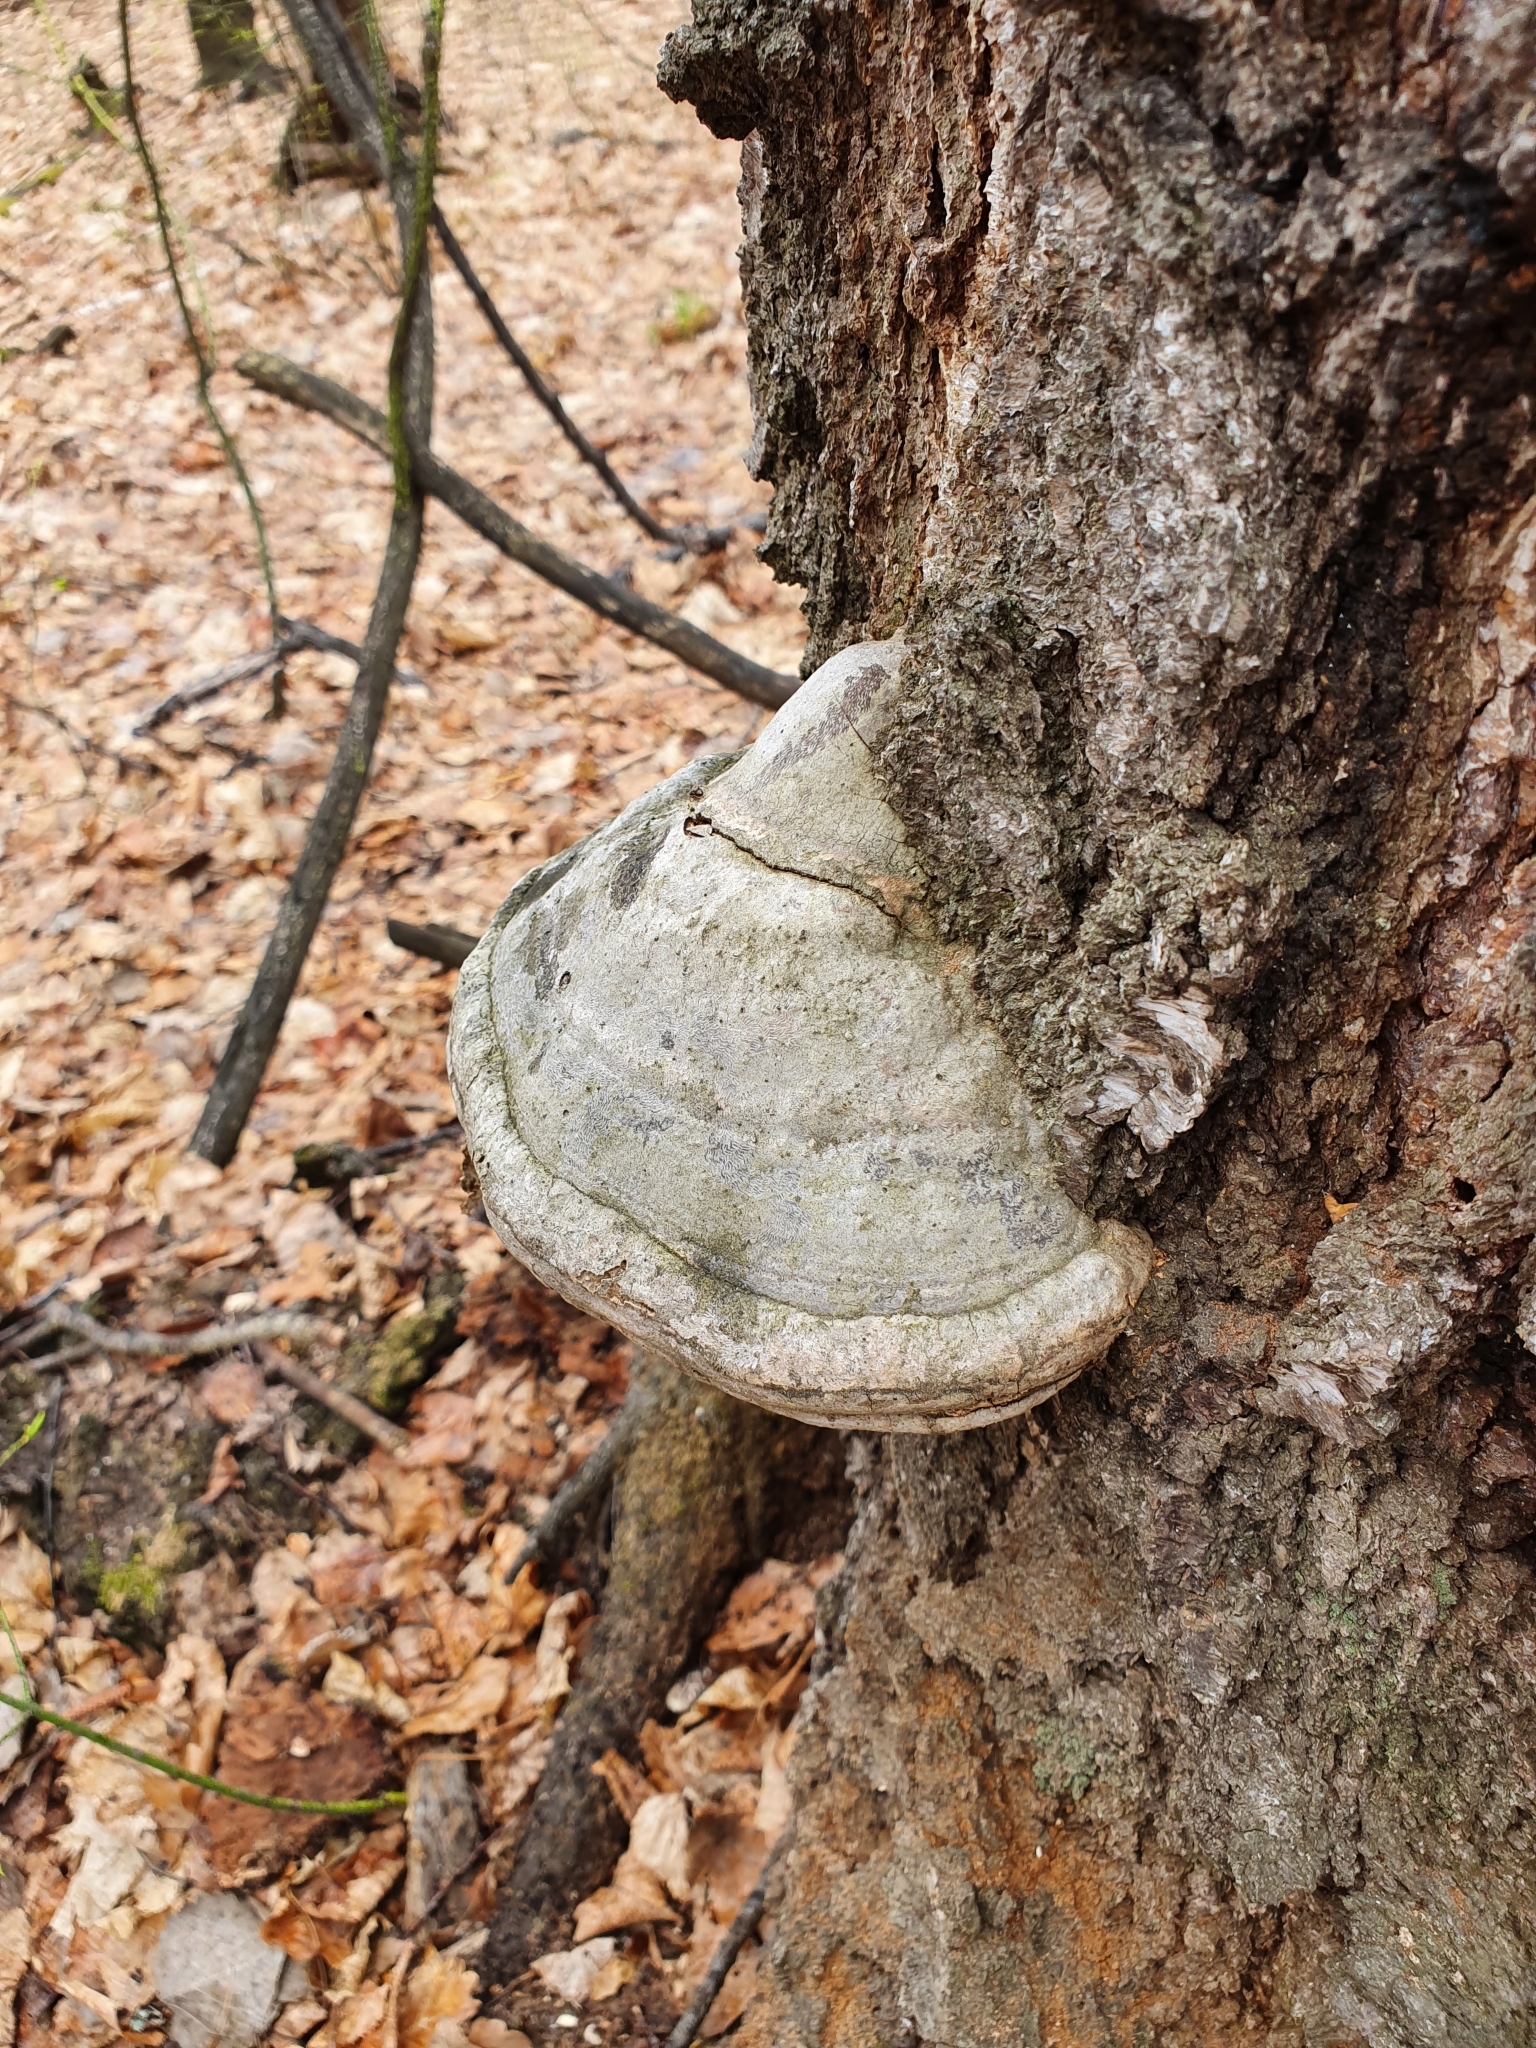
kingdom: Fungi
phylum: Basidiomycota
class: Agaricomycetes
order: Polyporales
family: Polyporaceae
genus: Fomes
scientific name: Fomes fomentarius
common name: Hoof fungus
